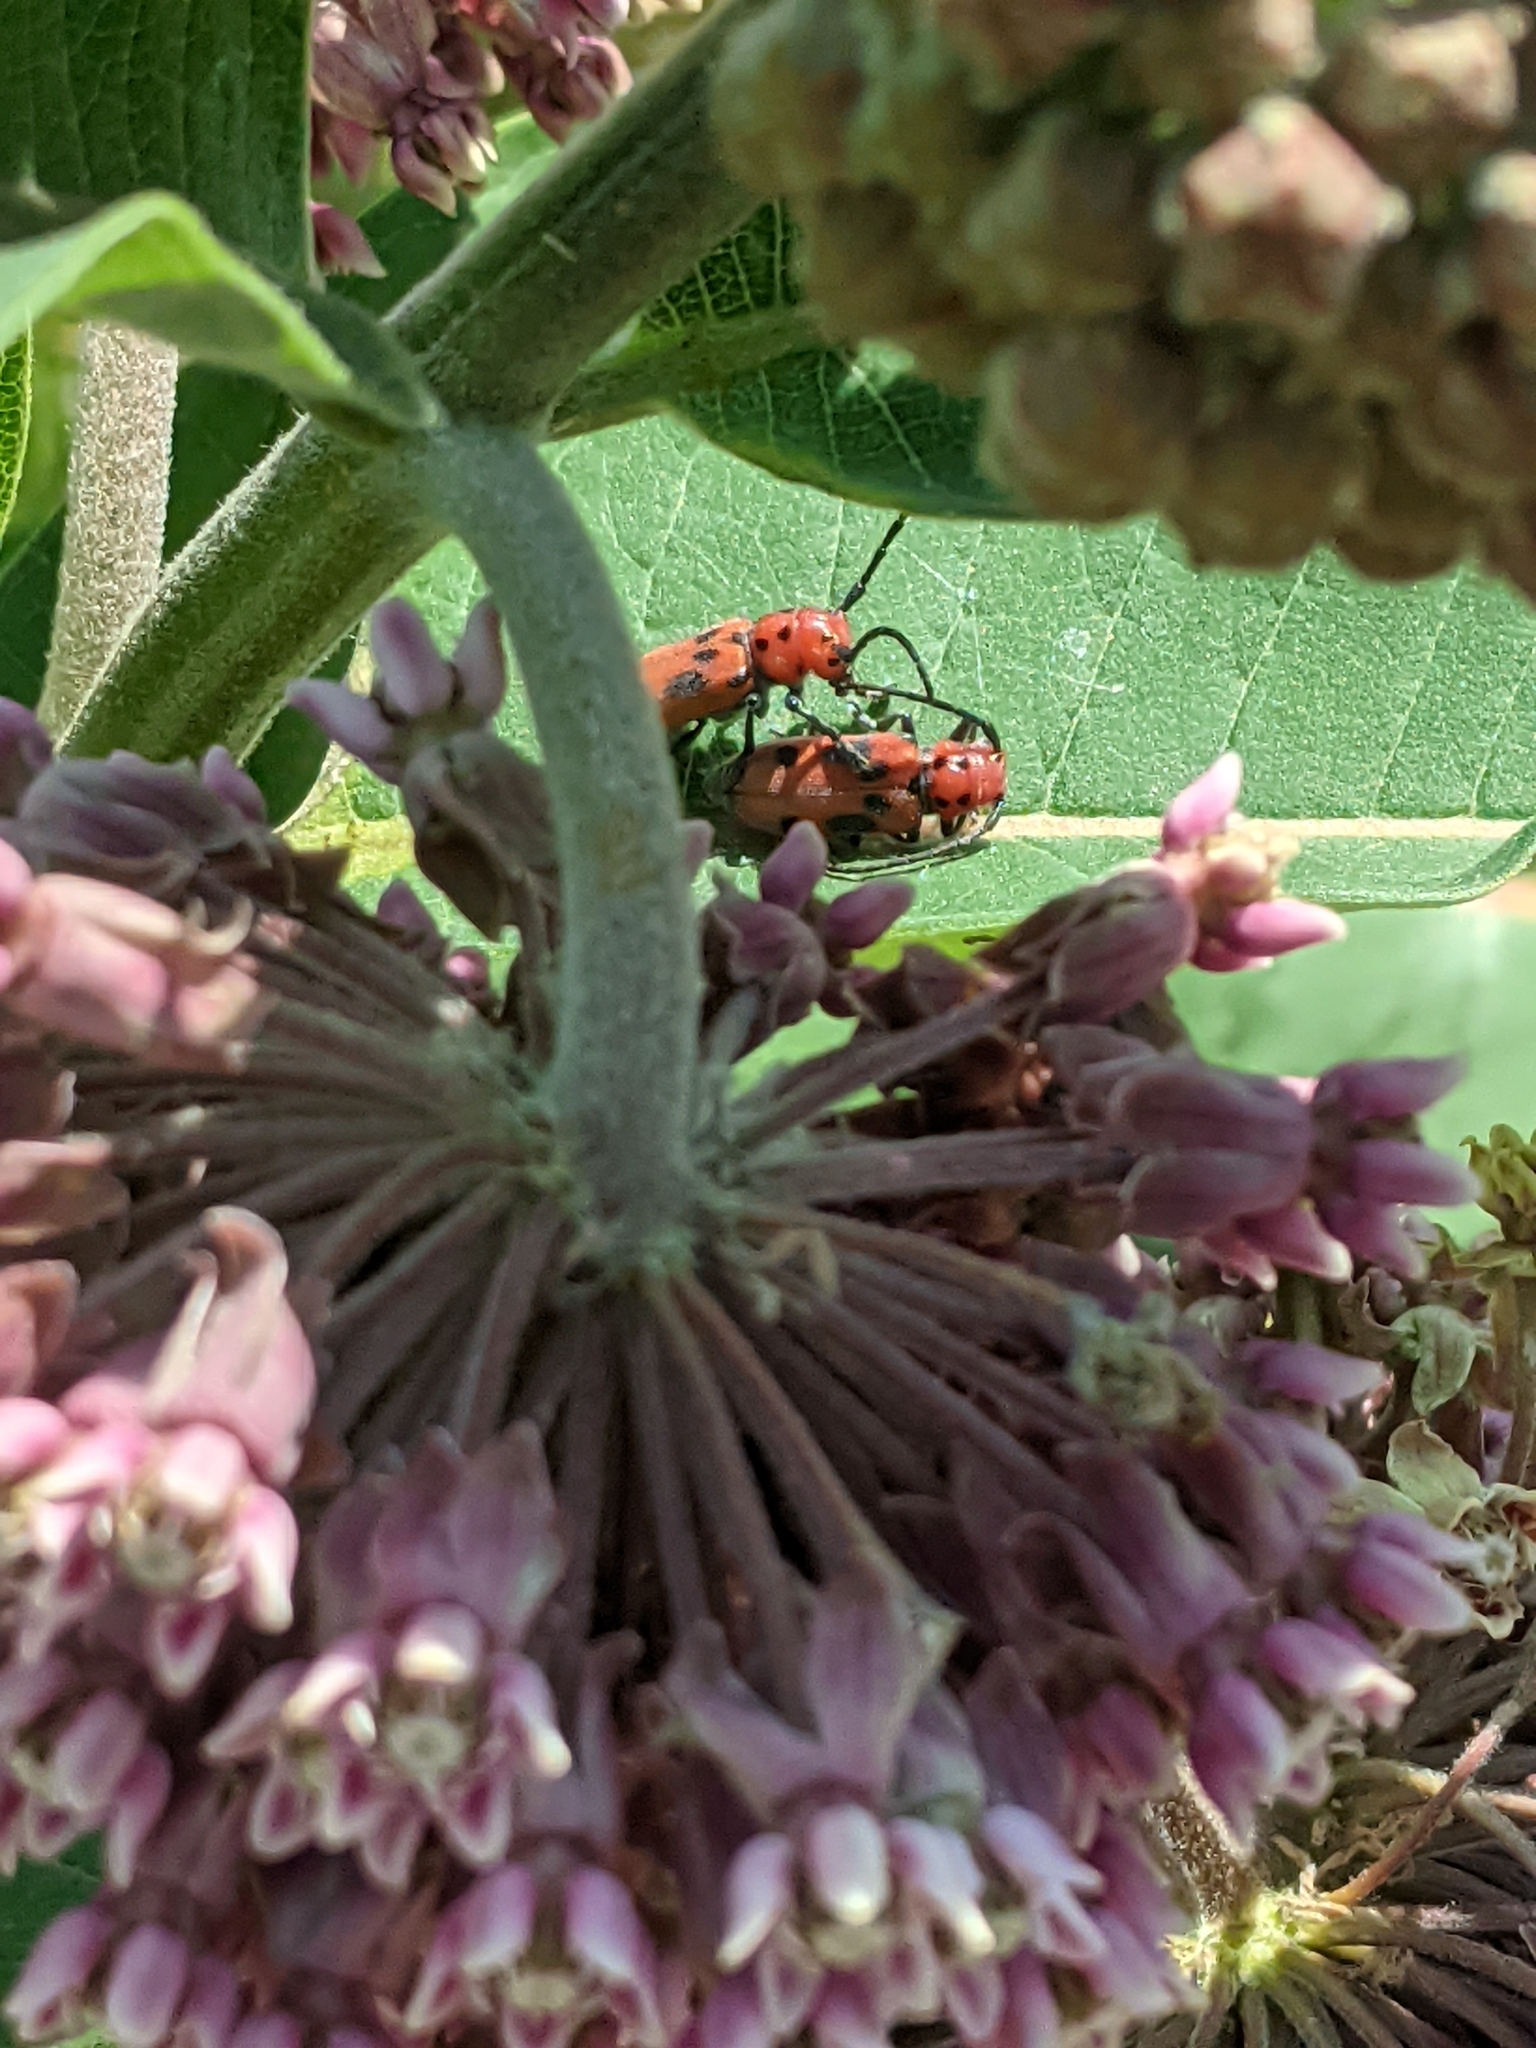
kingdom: Animalia
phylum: Arthropoda
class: Insecta
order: Coleoptera
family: Cerambycidae
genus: Tetraopes
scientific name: Tetraopes tetrophthalmus
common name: Red milkweed beetle
